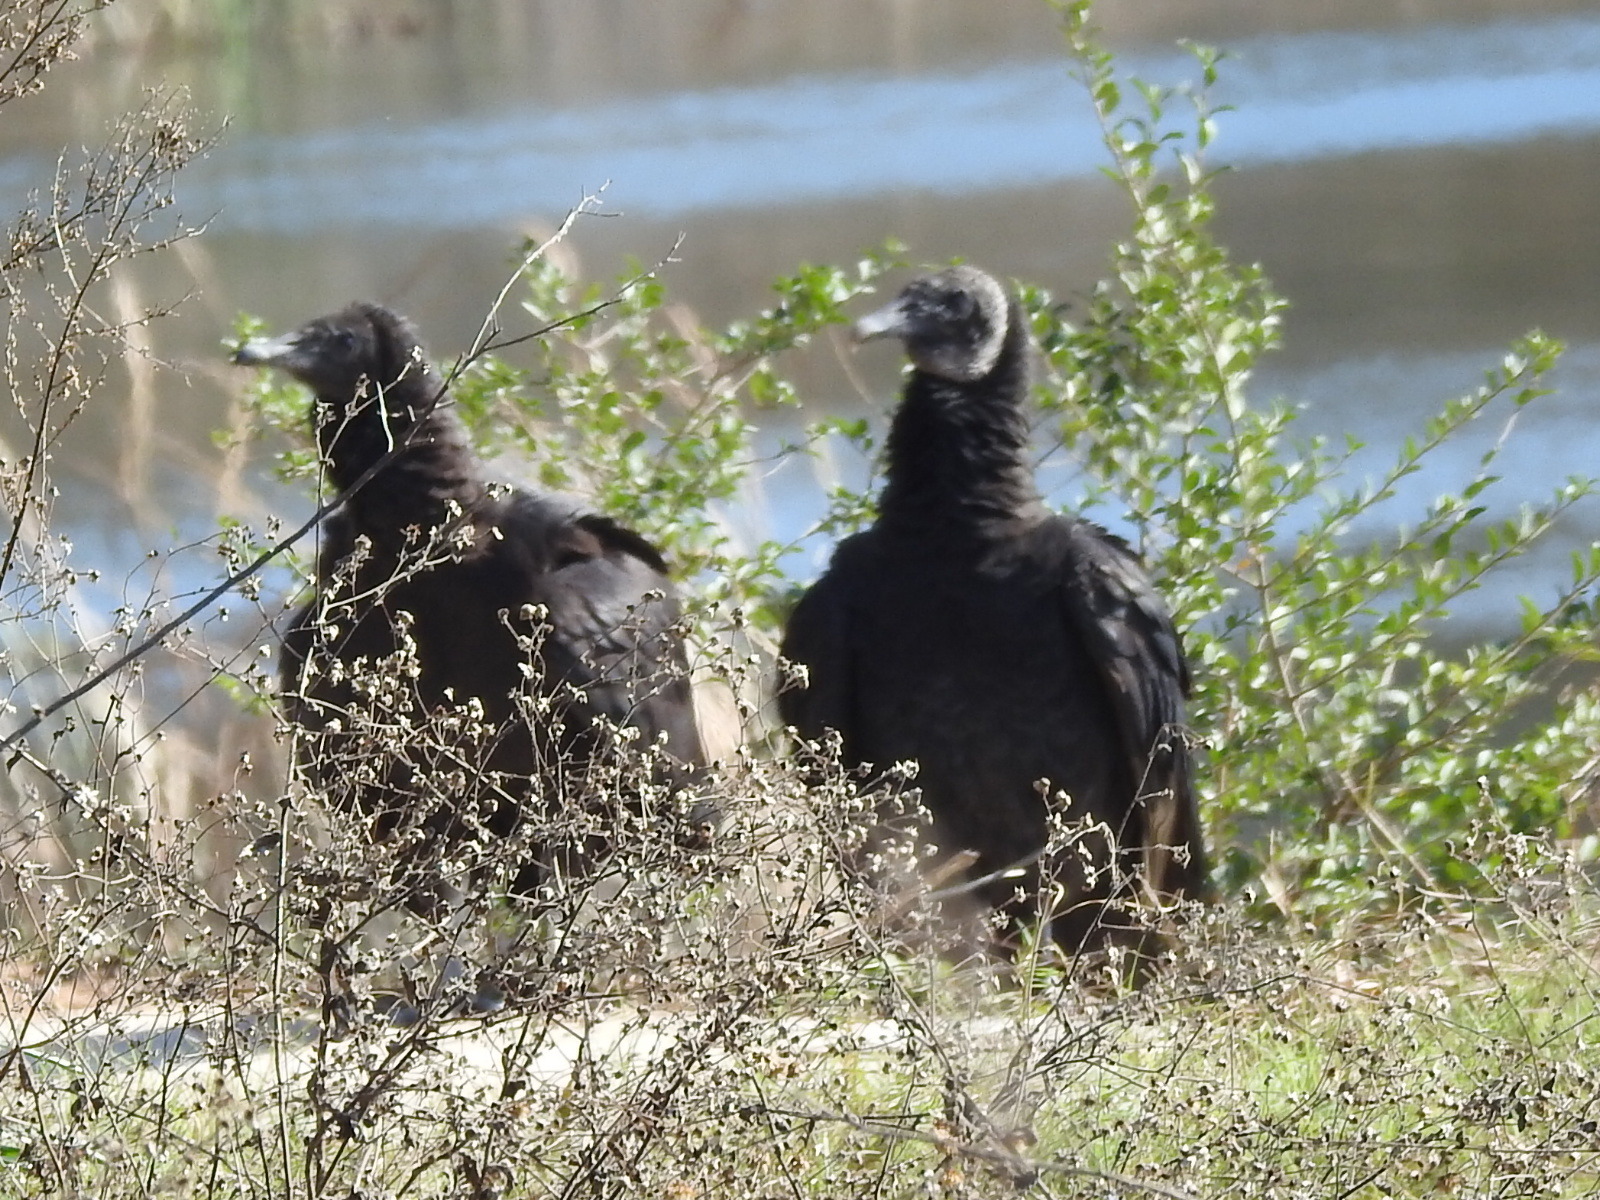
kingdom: Animalia
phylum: Chordata
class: Aves
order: Accipitriformes
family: Cathartidae
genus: Coragyps
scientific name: Coragyps atratus
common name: Black vulture
